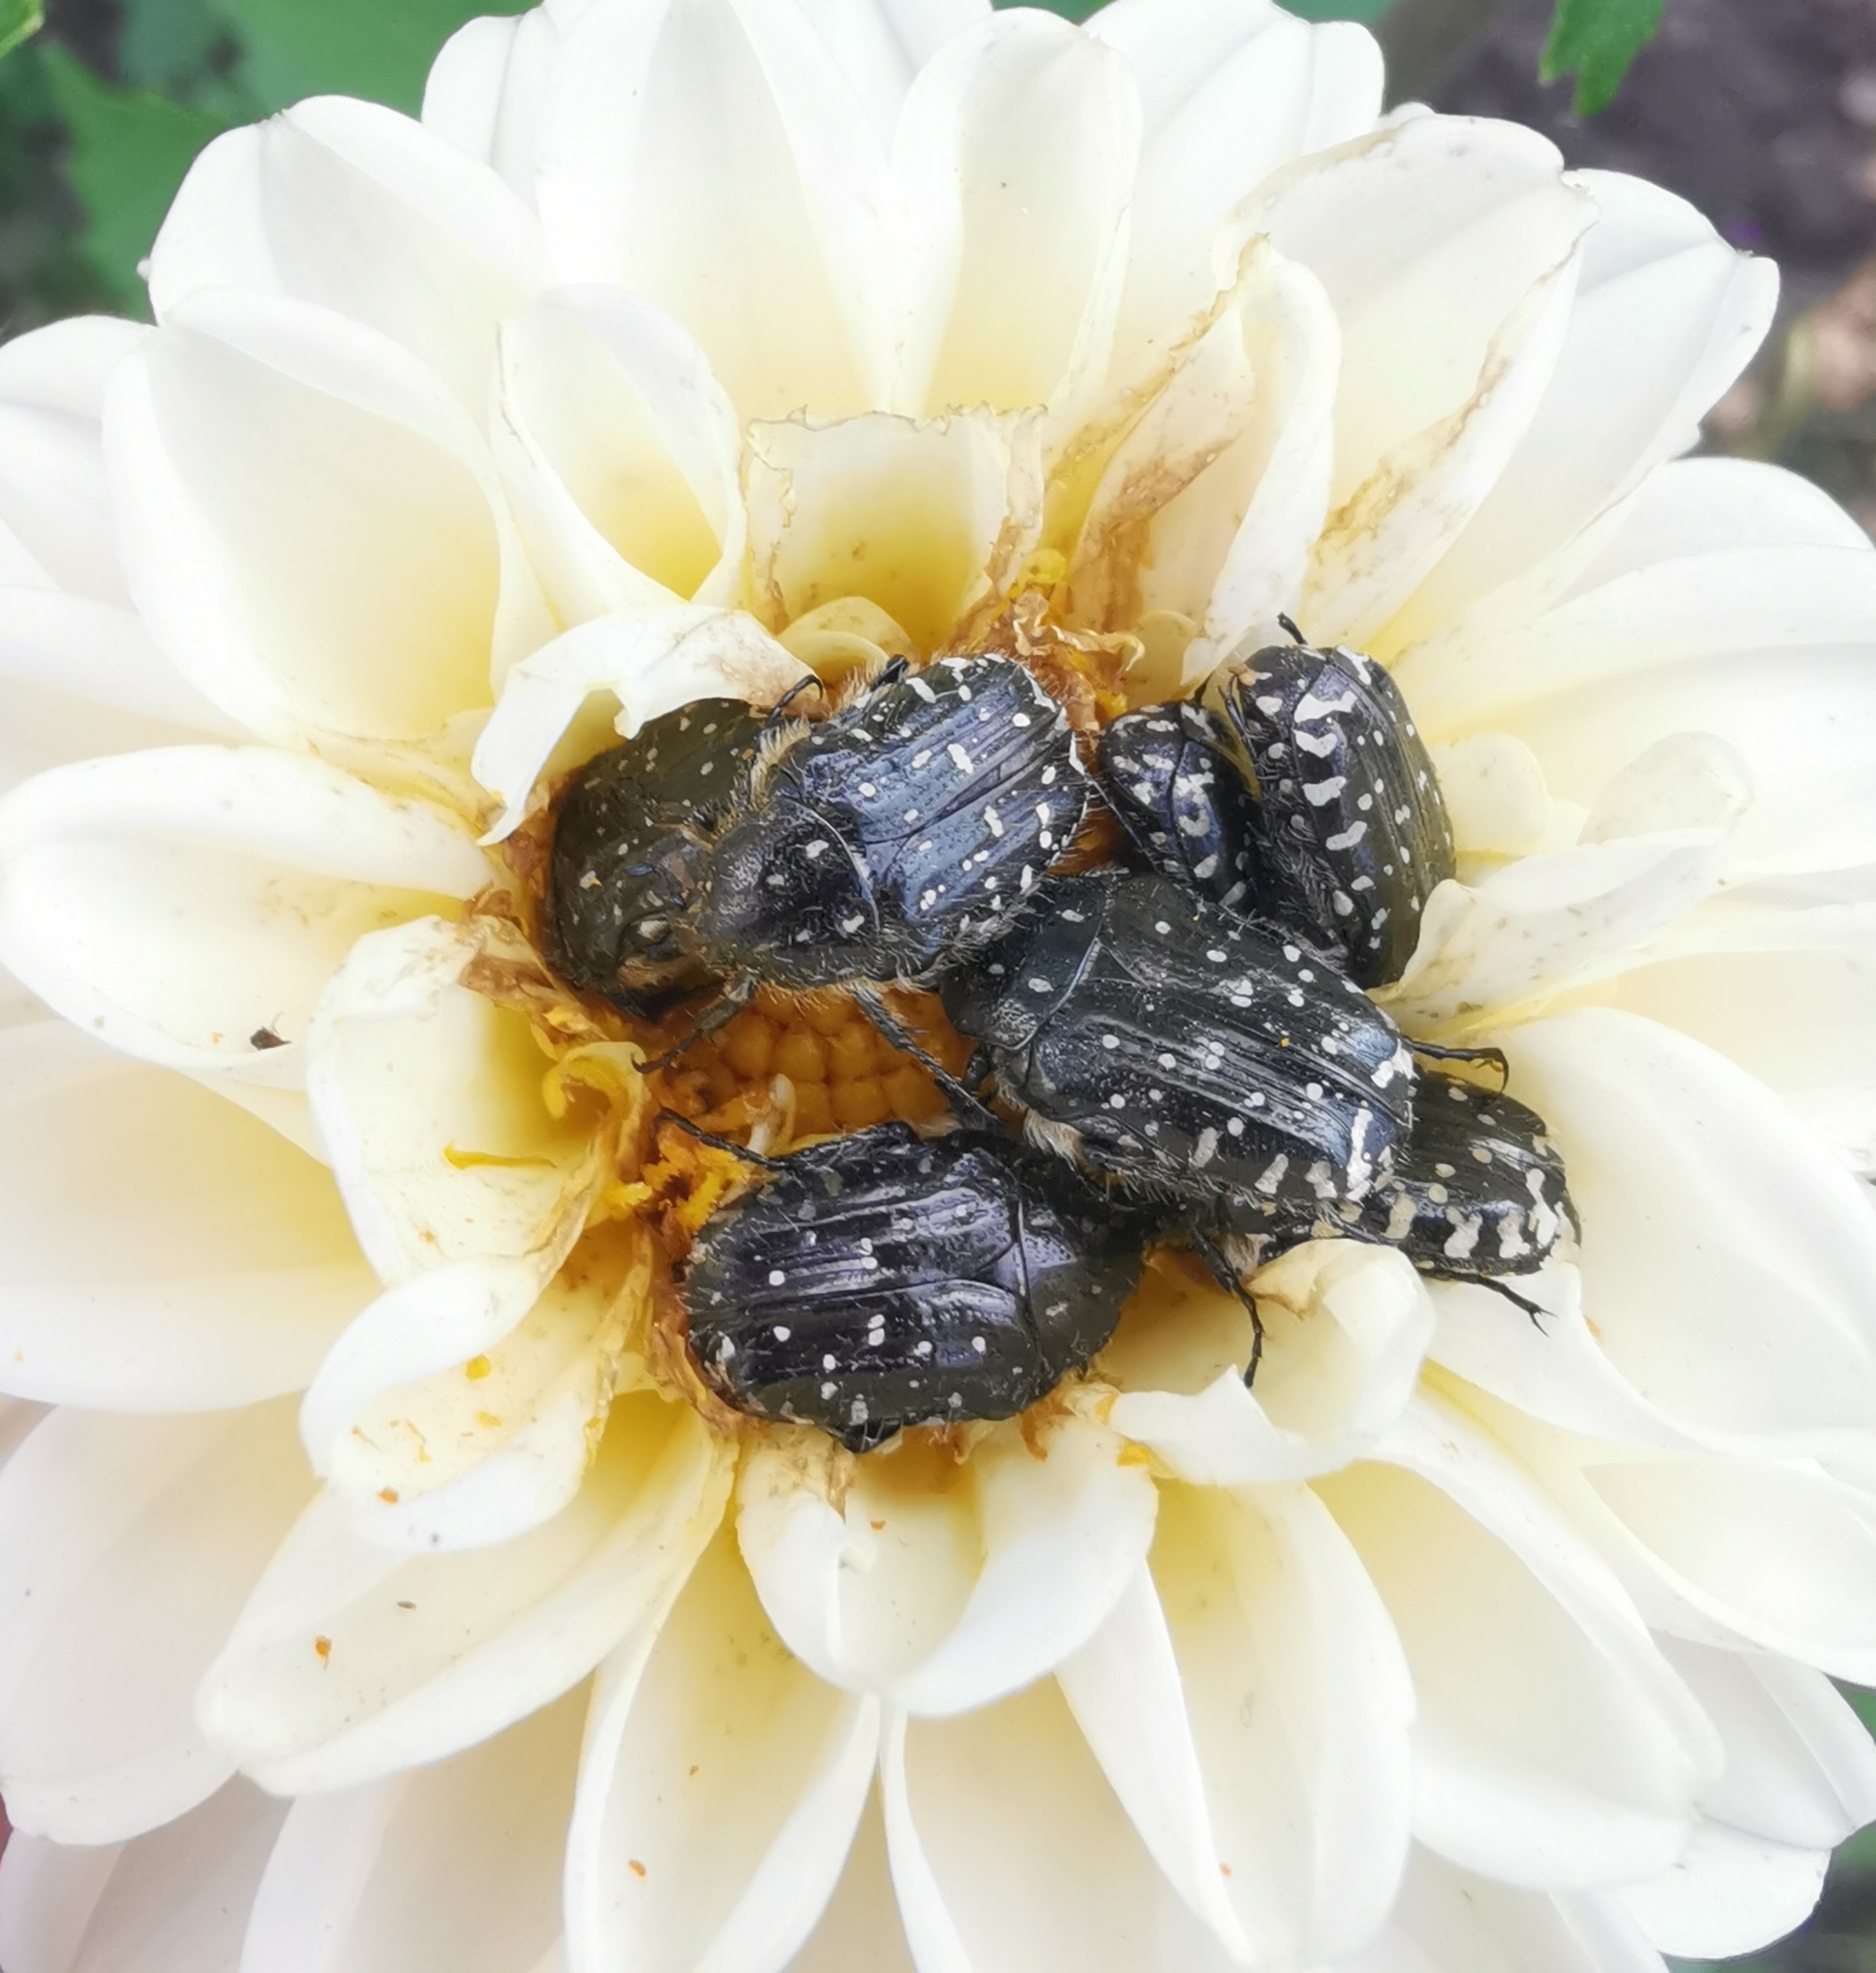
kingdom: Animalia
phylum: Arthropoda
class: Insecta
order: Coleoptera
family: Scarabaeidae
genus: Oxythyrea
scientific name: Oxythyrea funesta
